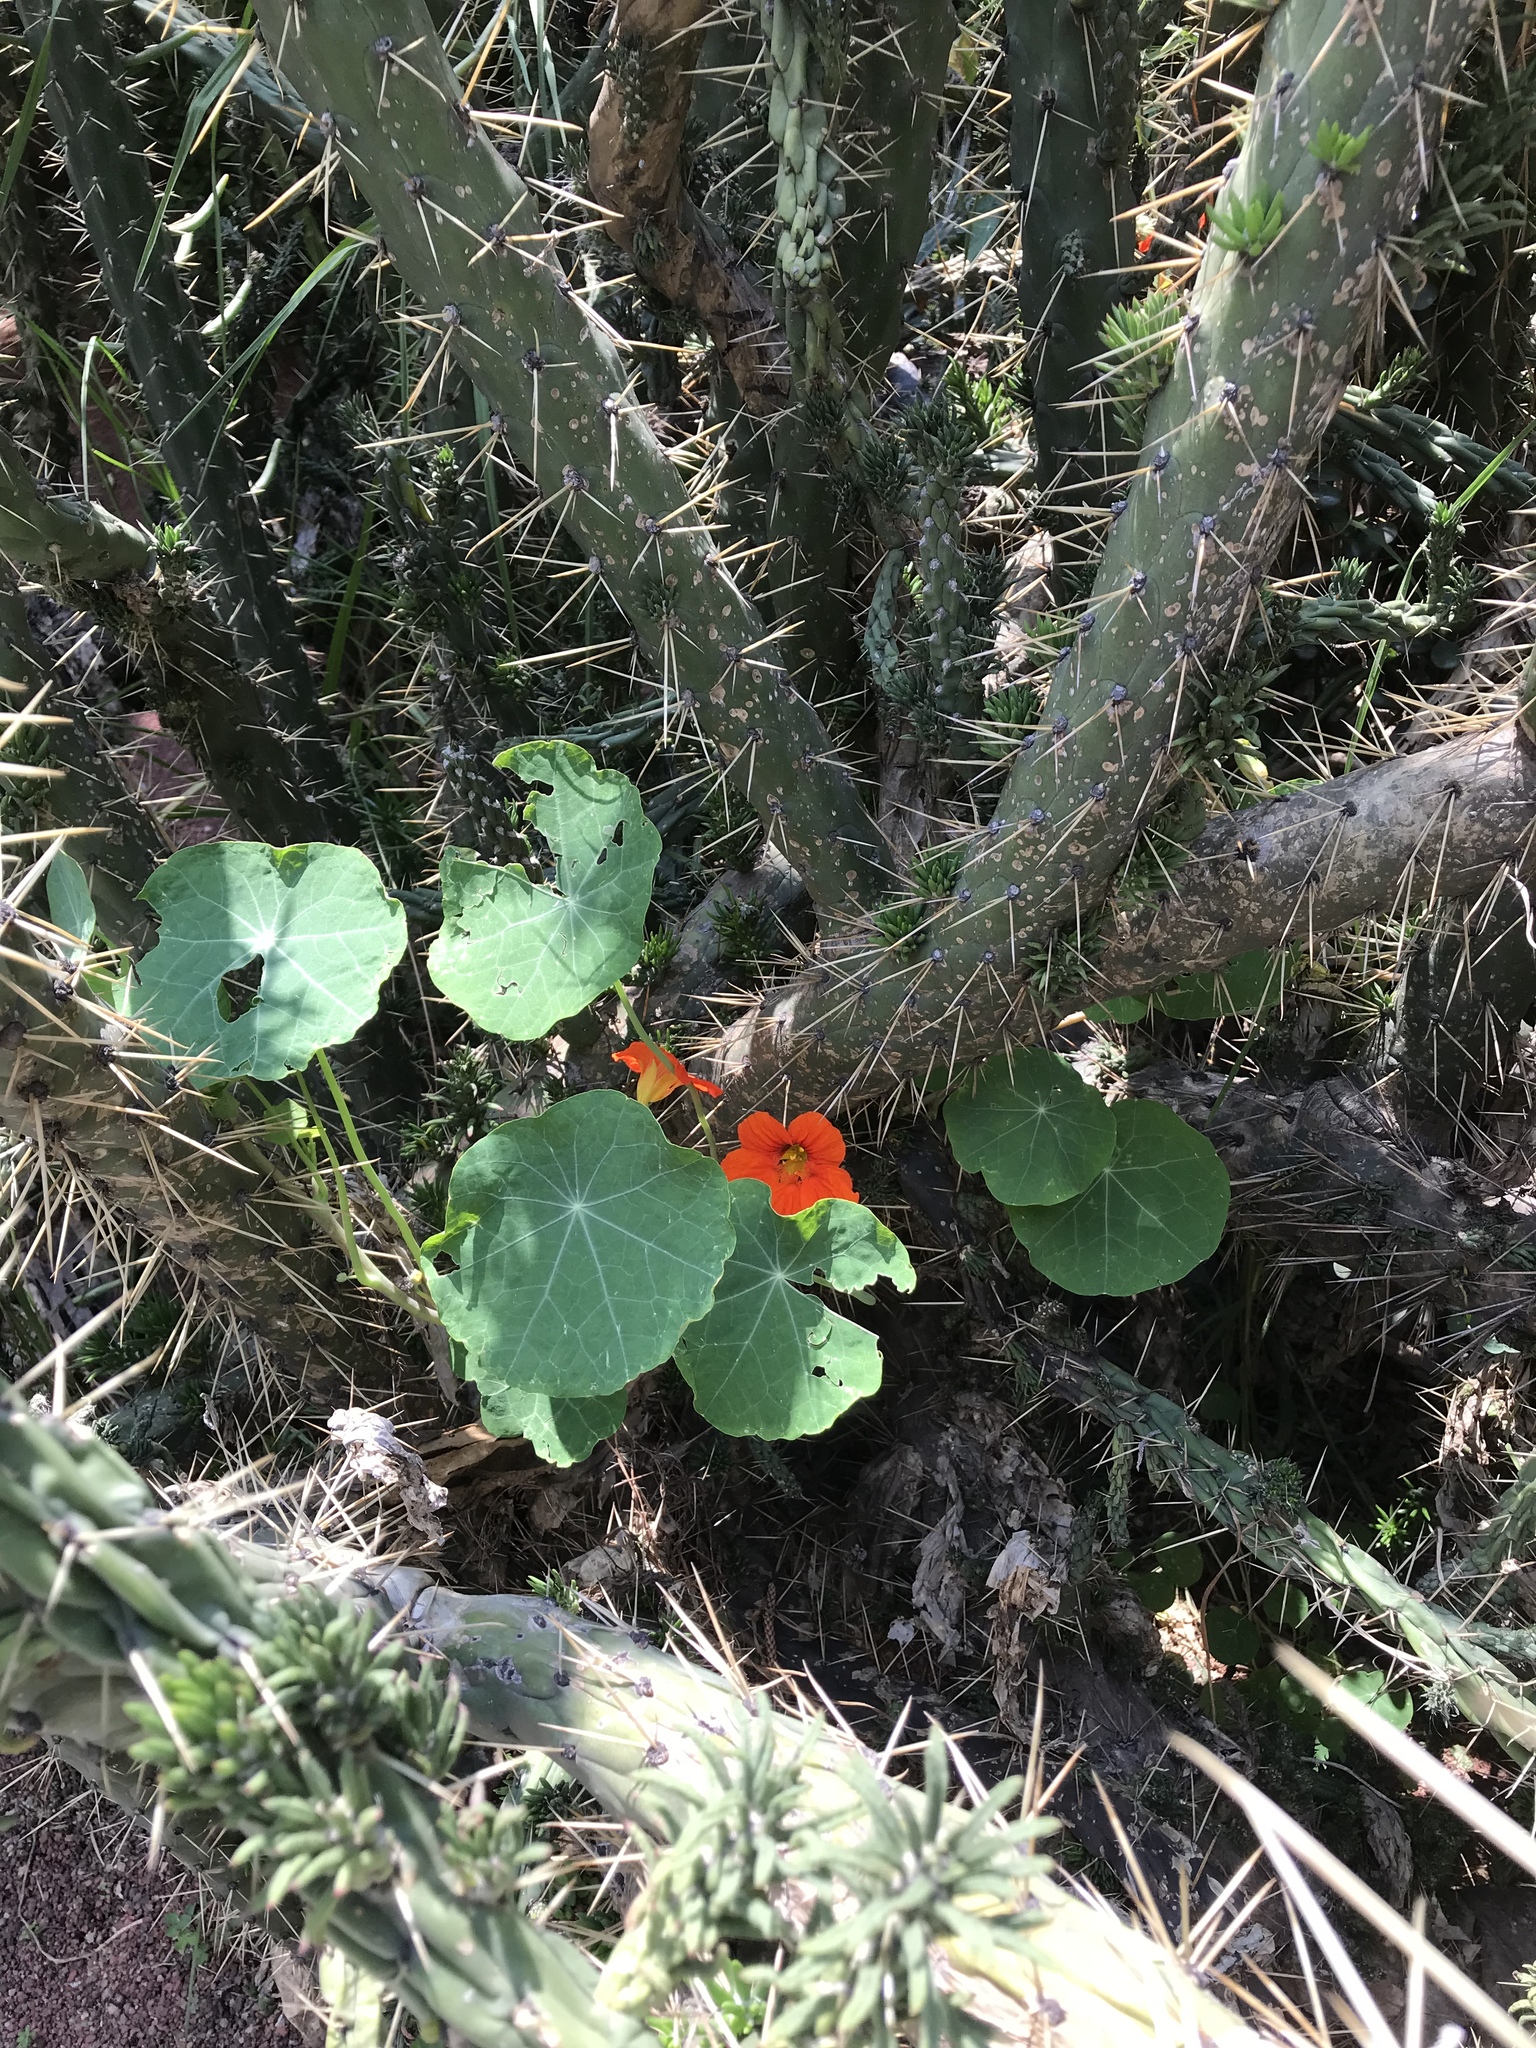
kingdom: Plantae
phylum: Tracheophyta
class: Magnoliopsida
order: Brassicales
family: Tropaeolaceae
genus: Tropaeolum
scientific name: Tropaeolum majus
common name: Nasturtium
